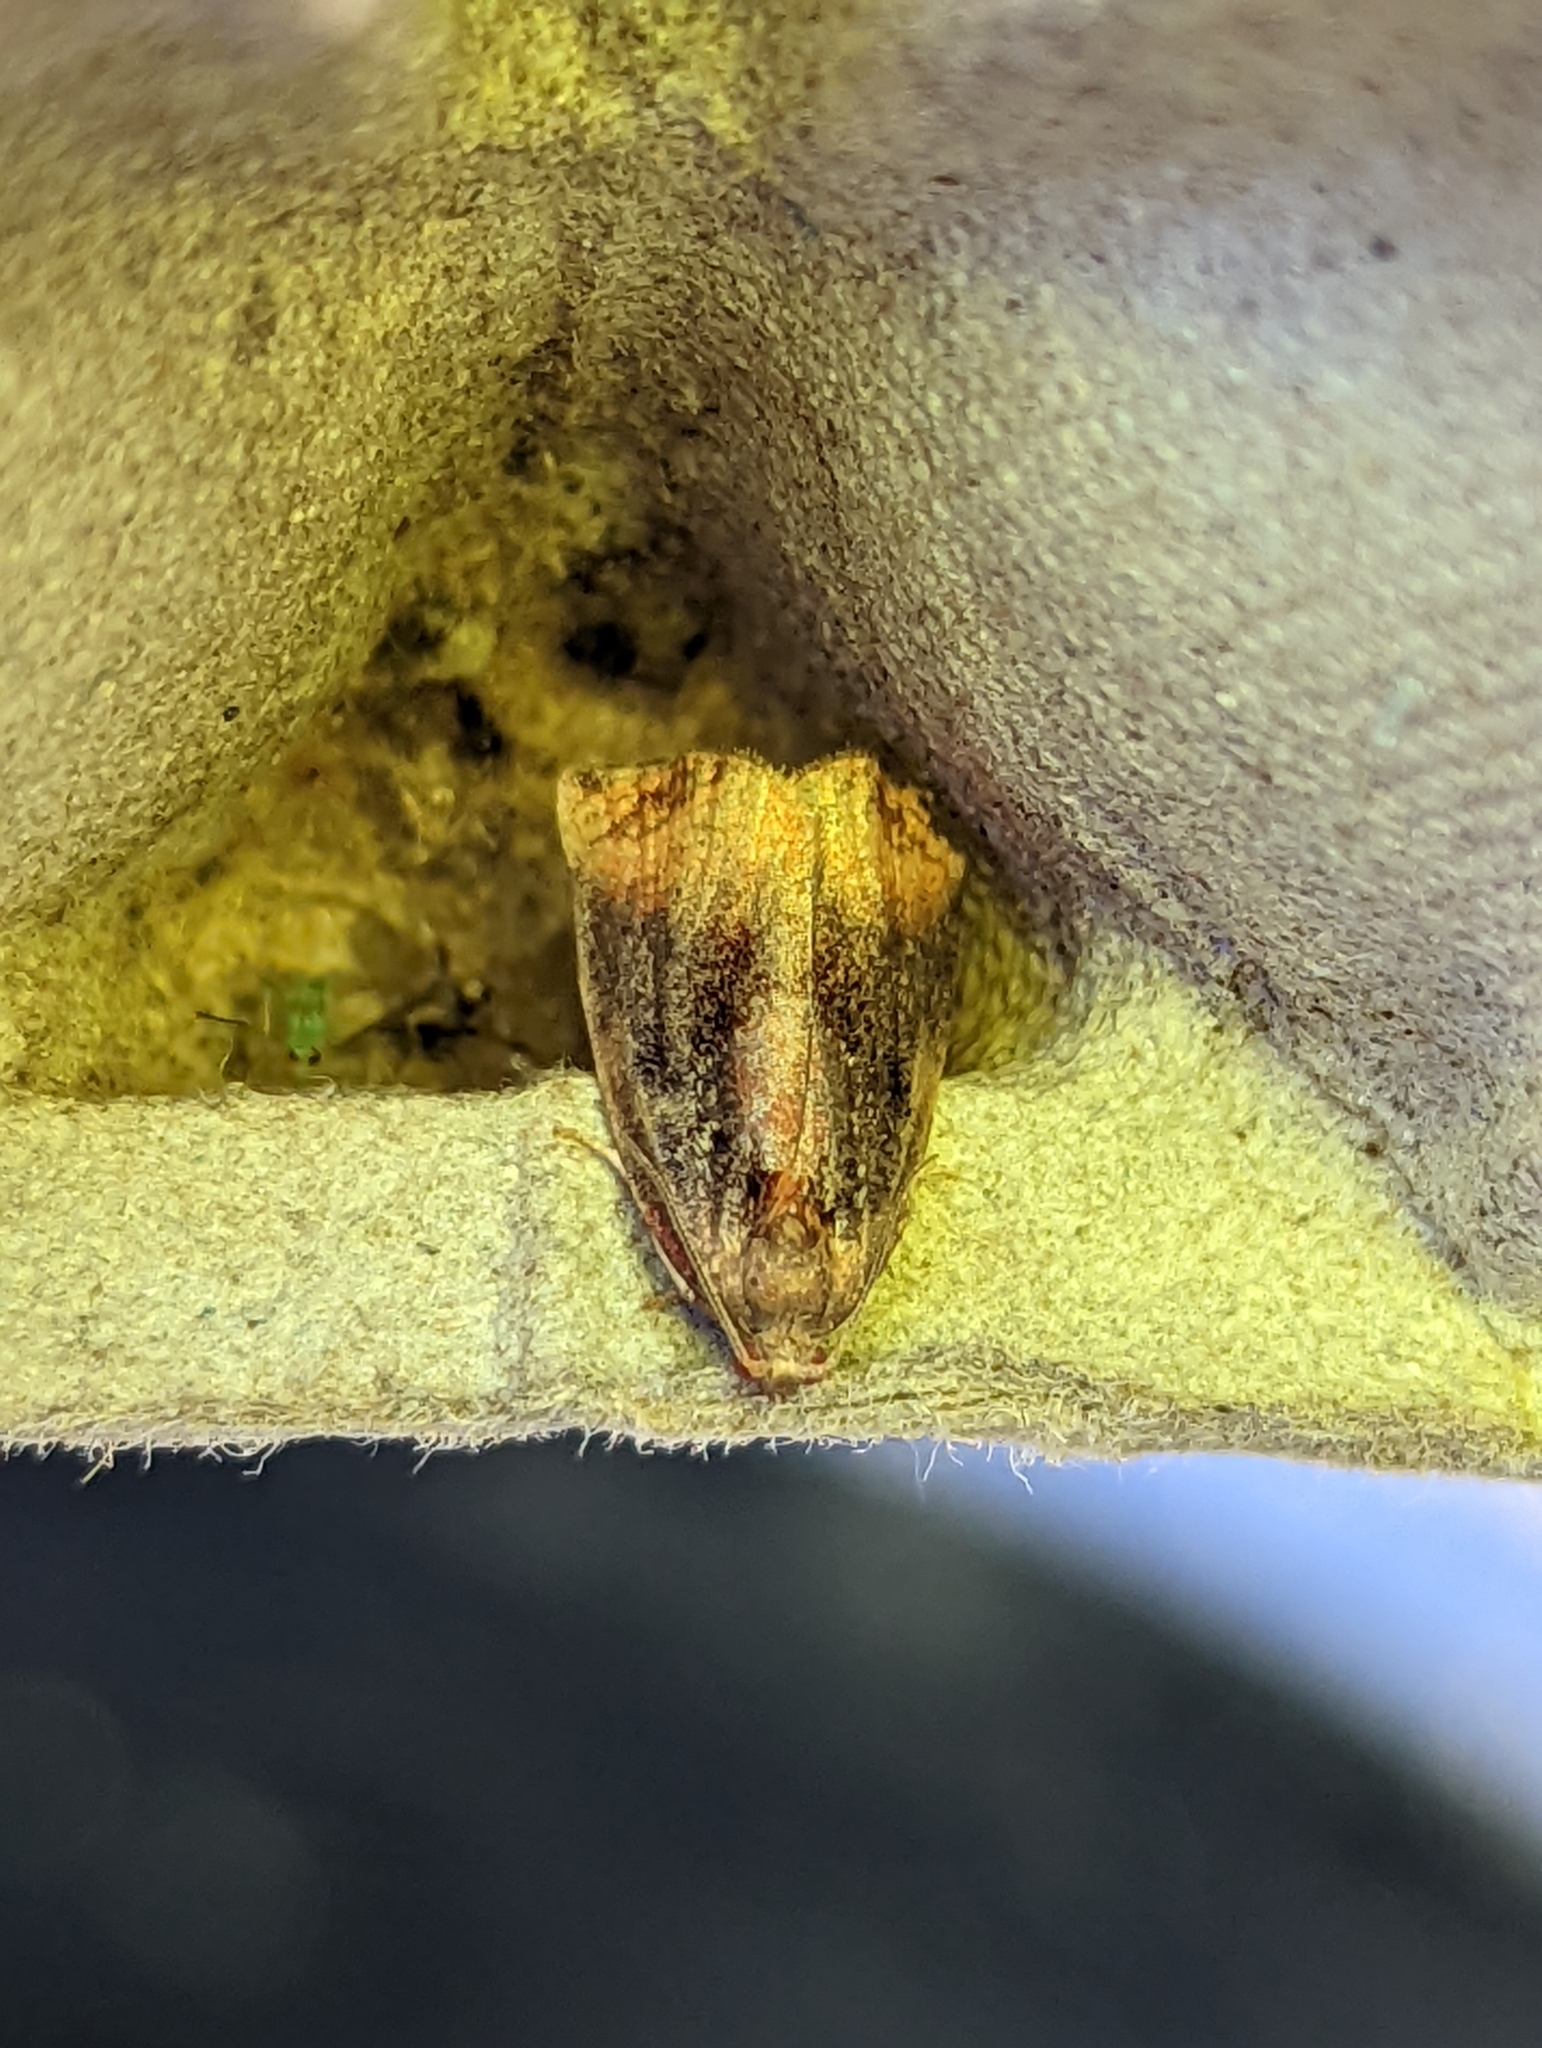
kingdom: Animalia
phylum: Arthropoda
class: Insecta
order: Lepidoptera
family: Tortricidae
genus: Archips
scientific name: Archips podana
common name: Large fruit-tree tortrix
